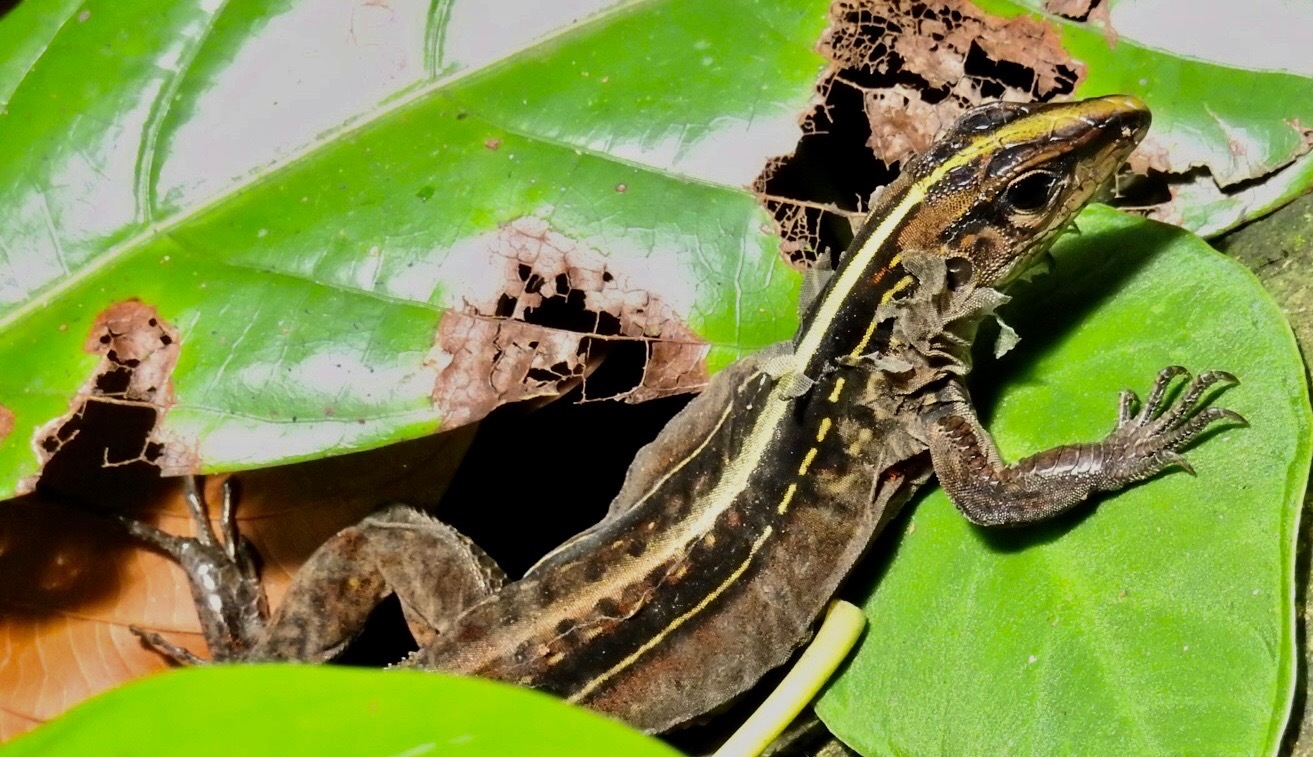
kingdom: Animalia
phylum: Chordata
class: Squamata
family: Teiidae
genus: Holcosus
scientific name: Holcosus festivus
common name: Middle american ameiva
